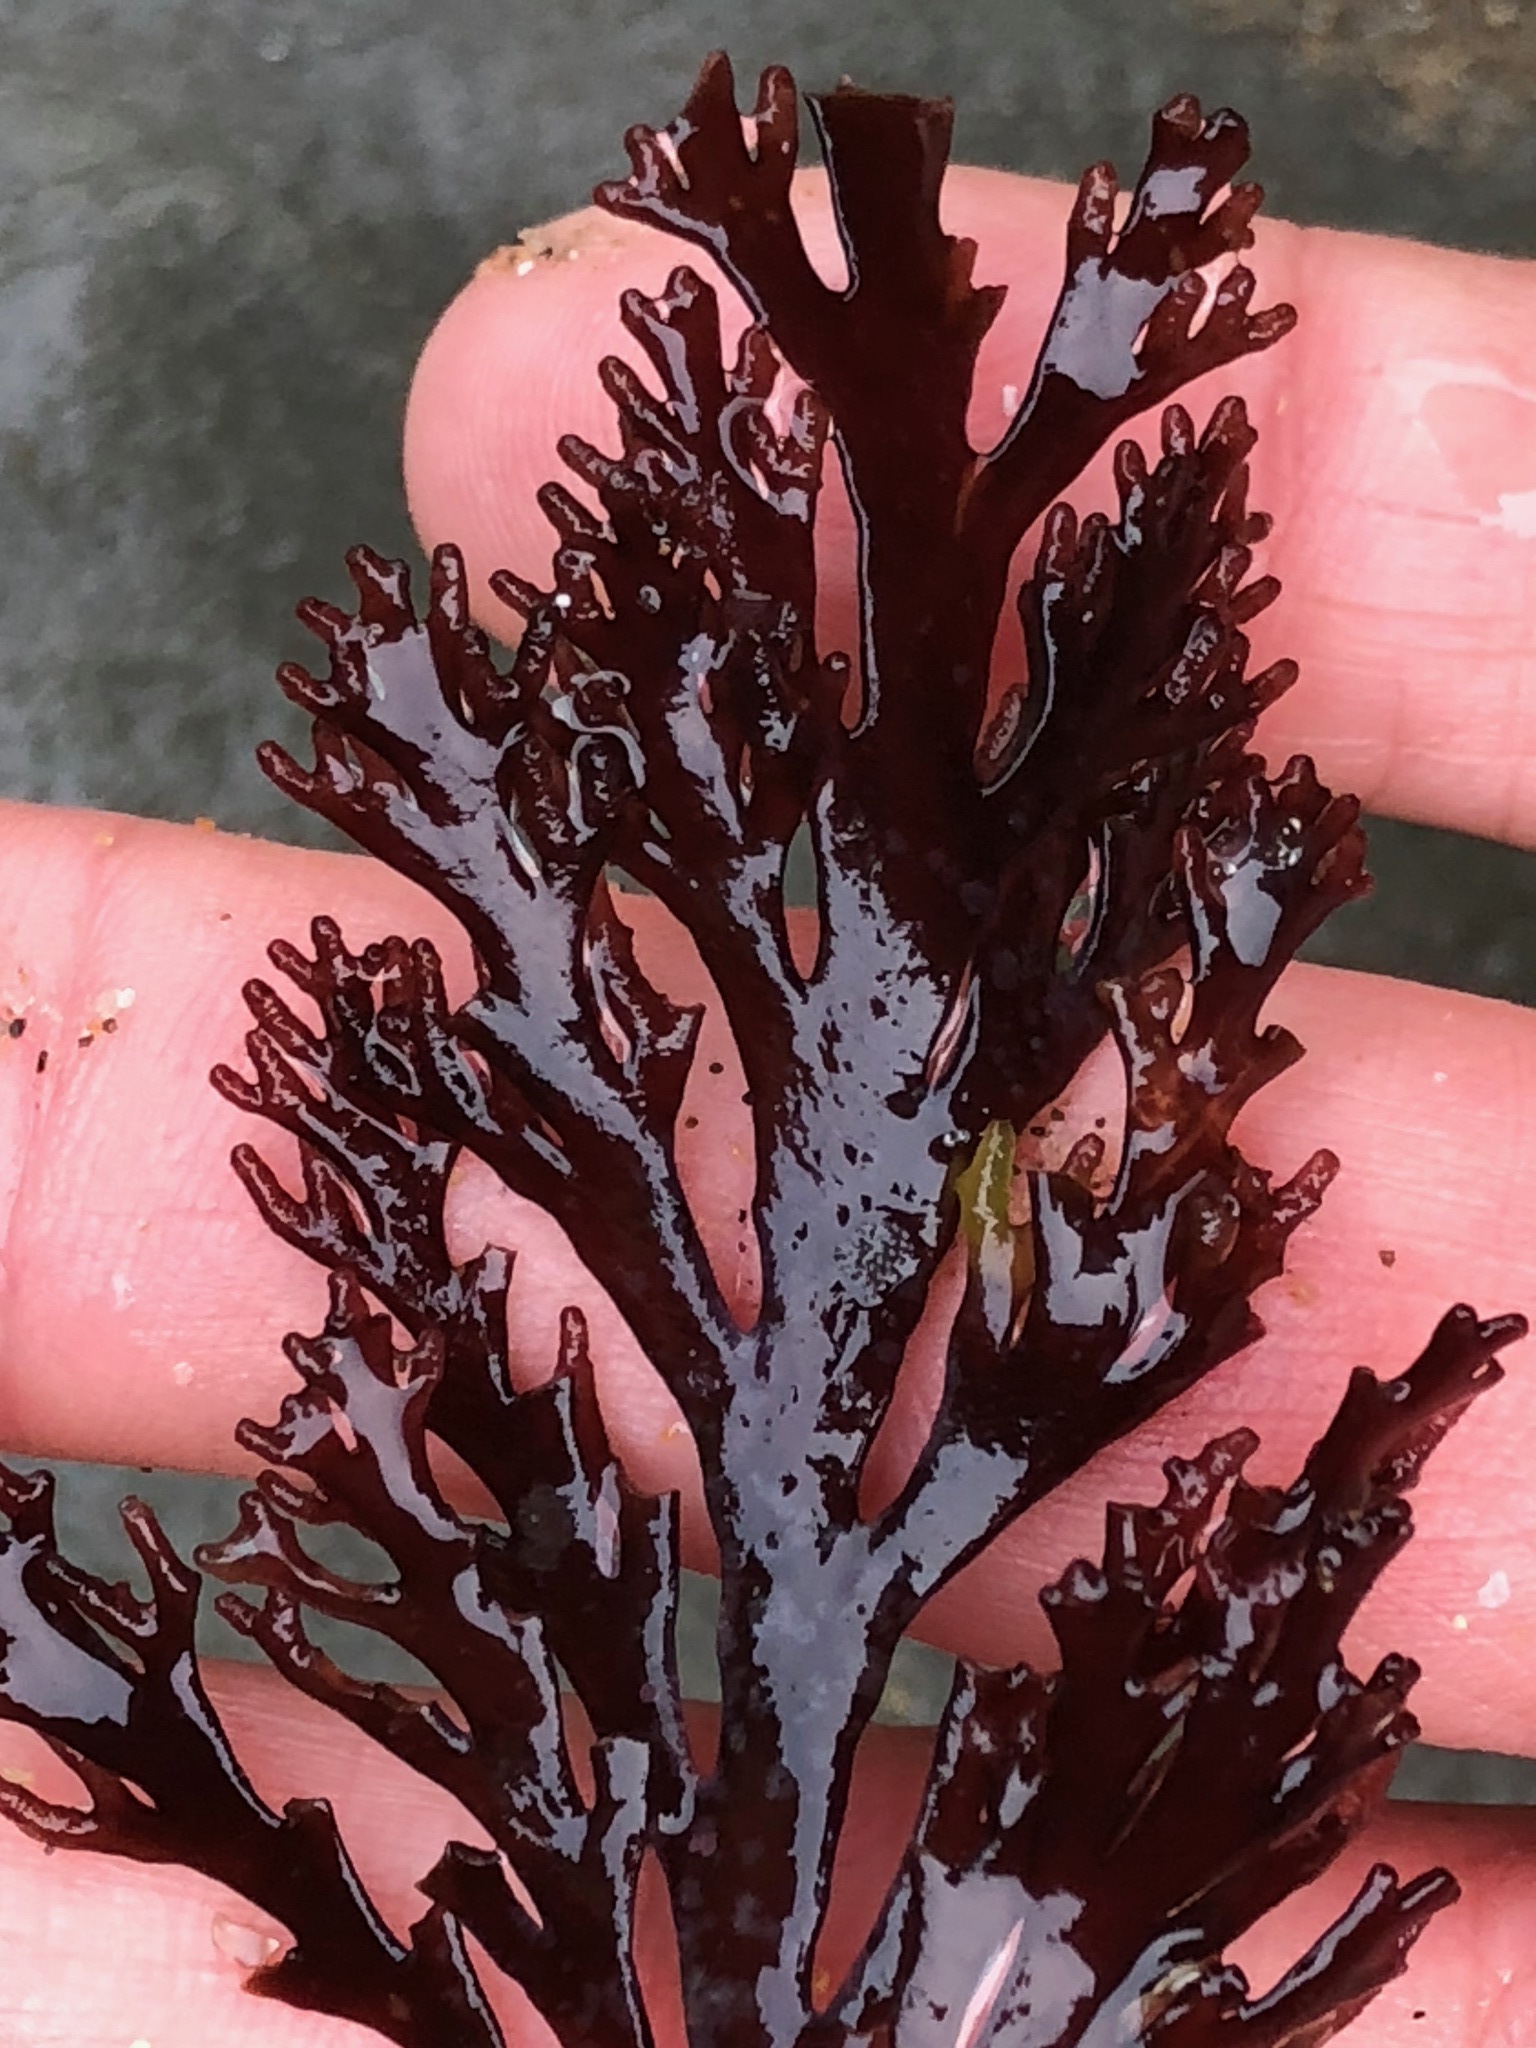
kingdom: Plantae
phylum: Rhodophyta
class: Florideophyceae
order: Ceramiales
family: Rhodomelaceae
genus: Osmundea
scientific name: Osmundea spectabilis
